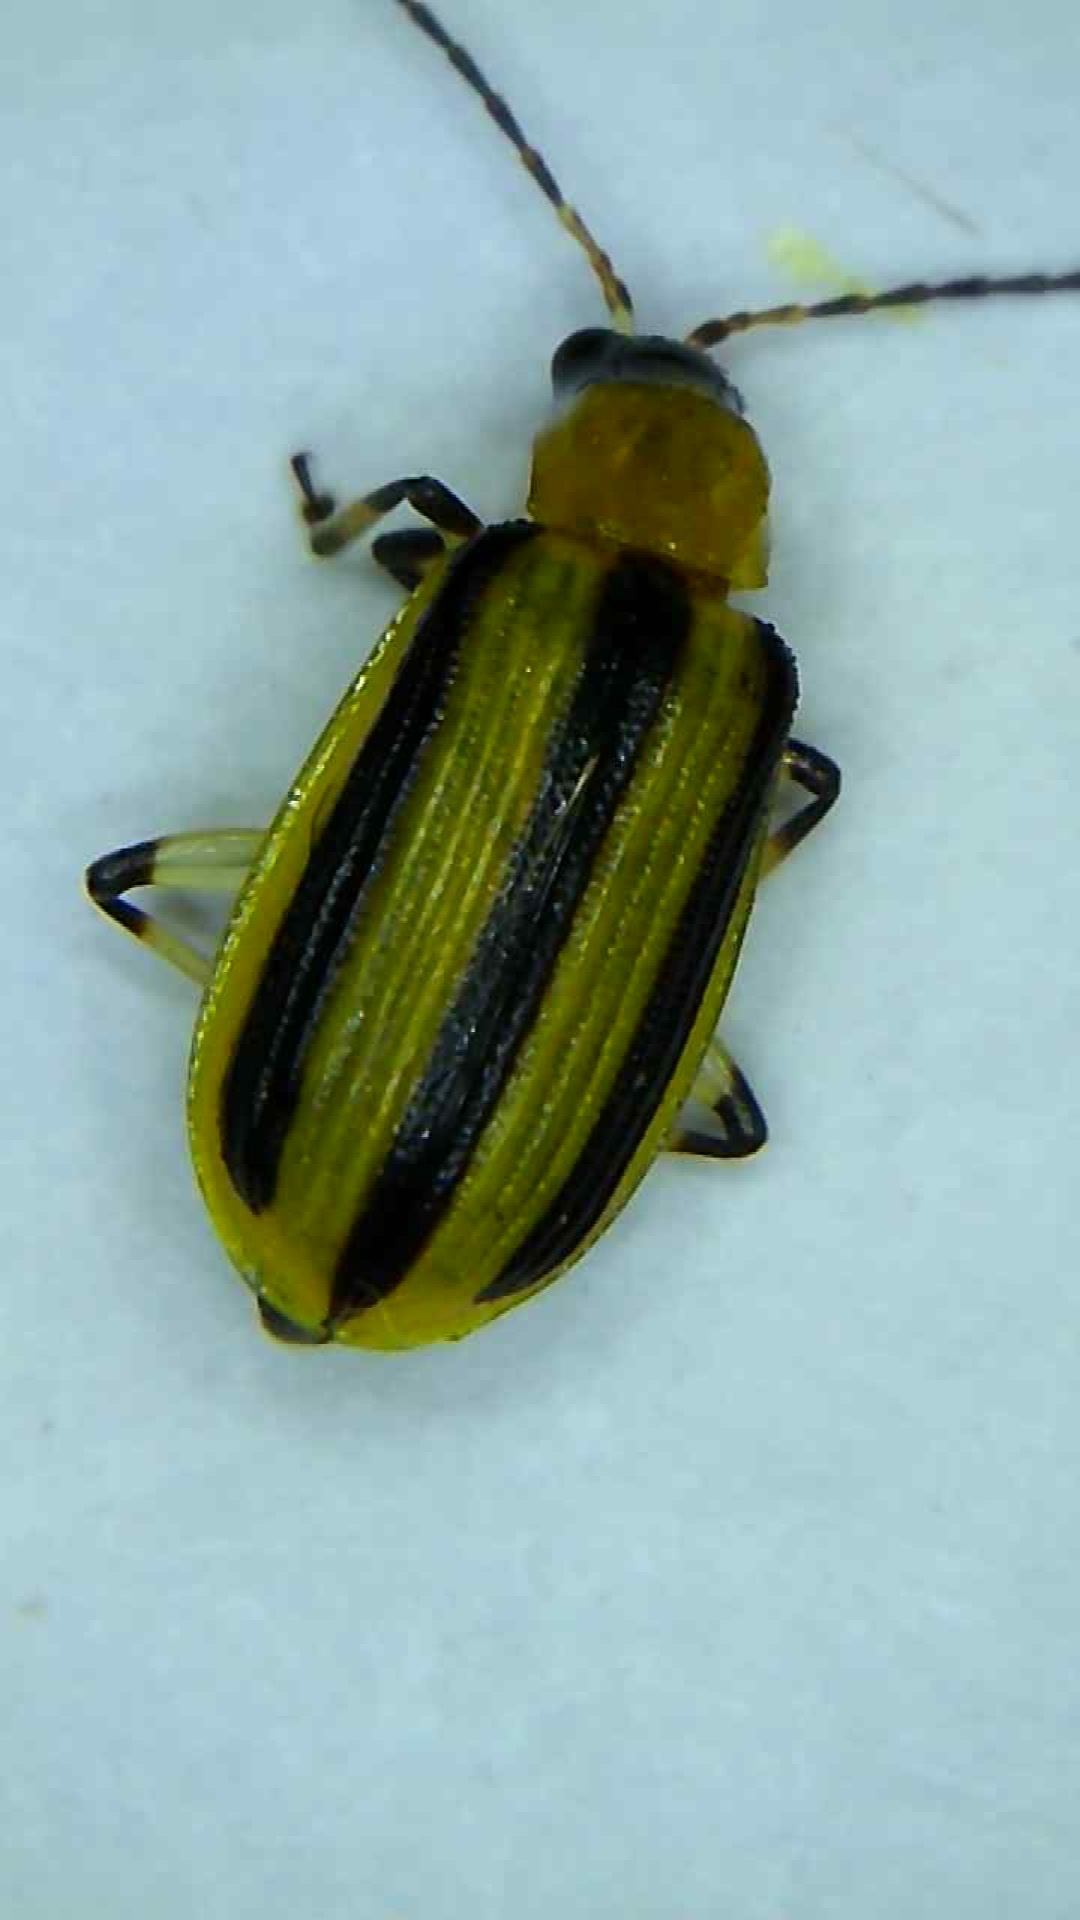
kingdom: Animalia
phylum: Arthropoda
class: Insecta
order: Coleoptera
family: Chrysomelidae
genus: Acalymma
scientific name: Acalymma vittatum
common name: Striped cucumber beetle
